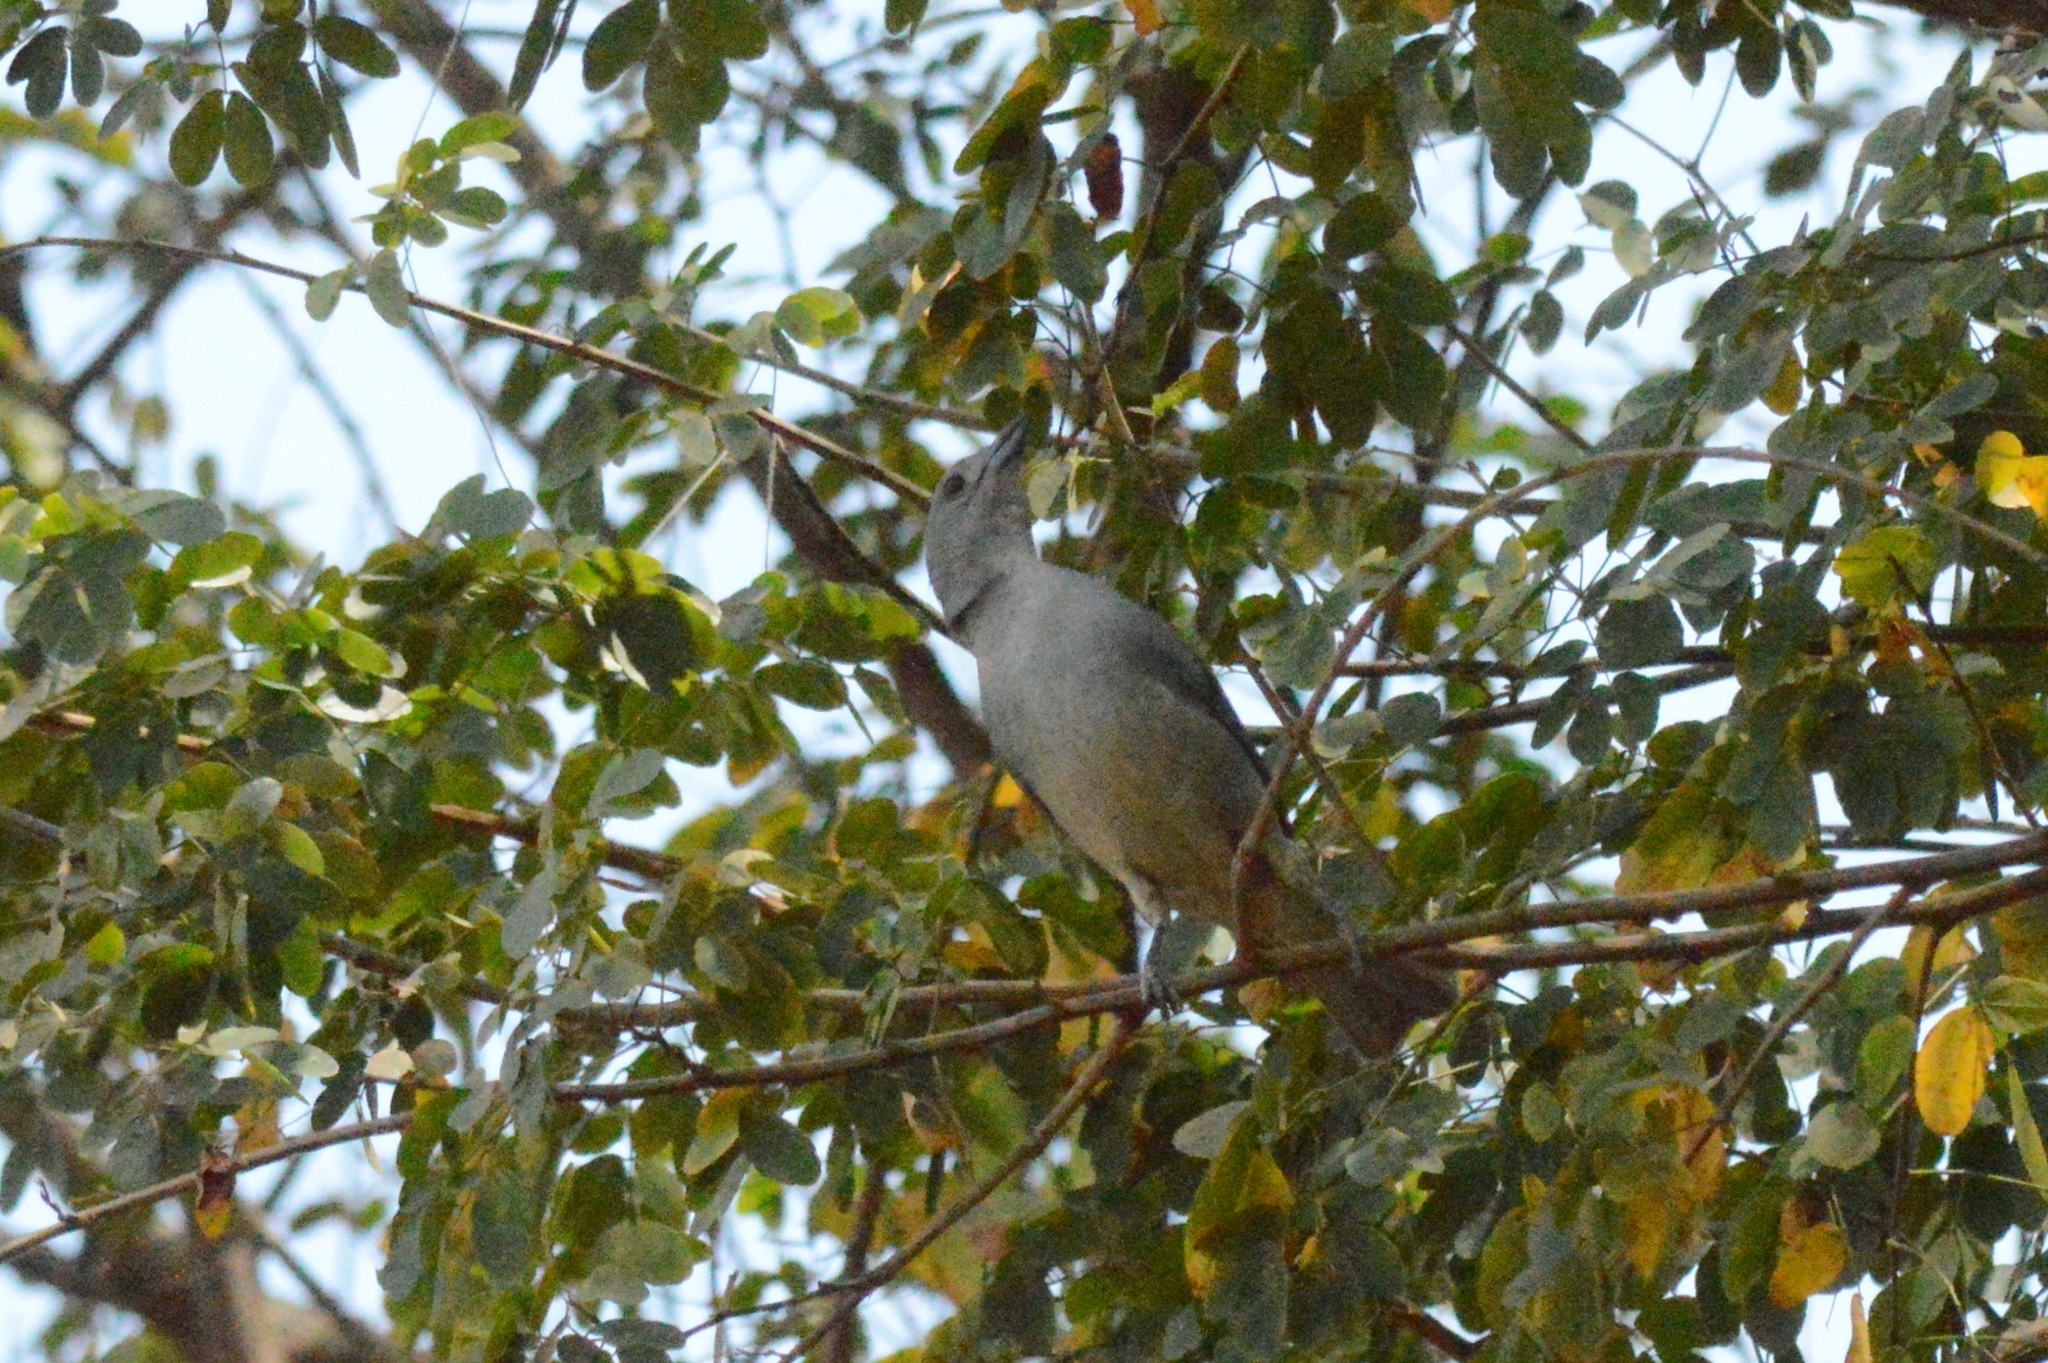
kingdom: Animalia
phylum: Chordata
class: Aves
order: Passeriformes
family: Thraupidae
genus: Thraupis
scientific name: Thraupis sayaca
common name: Sayaca tanager
